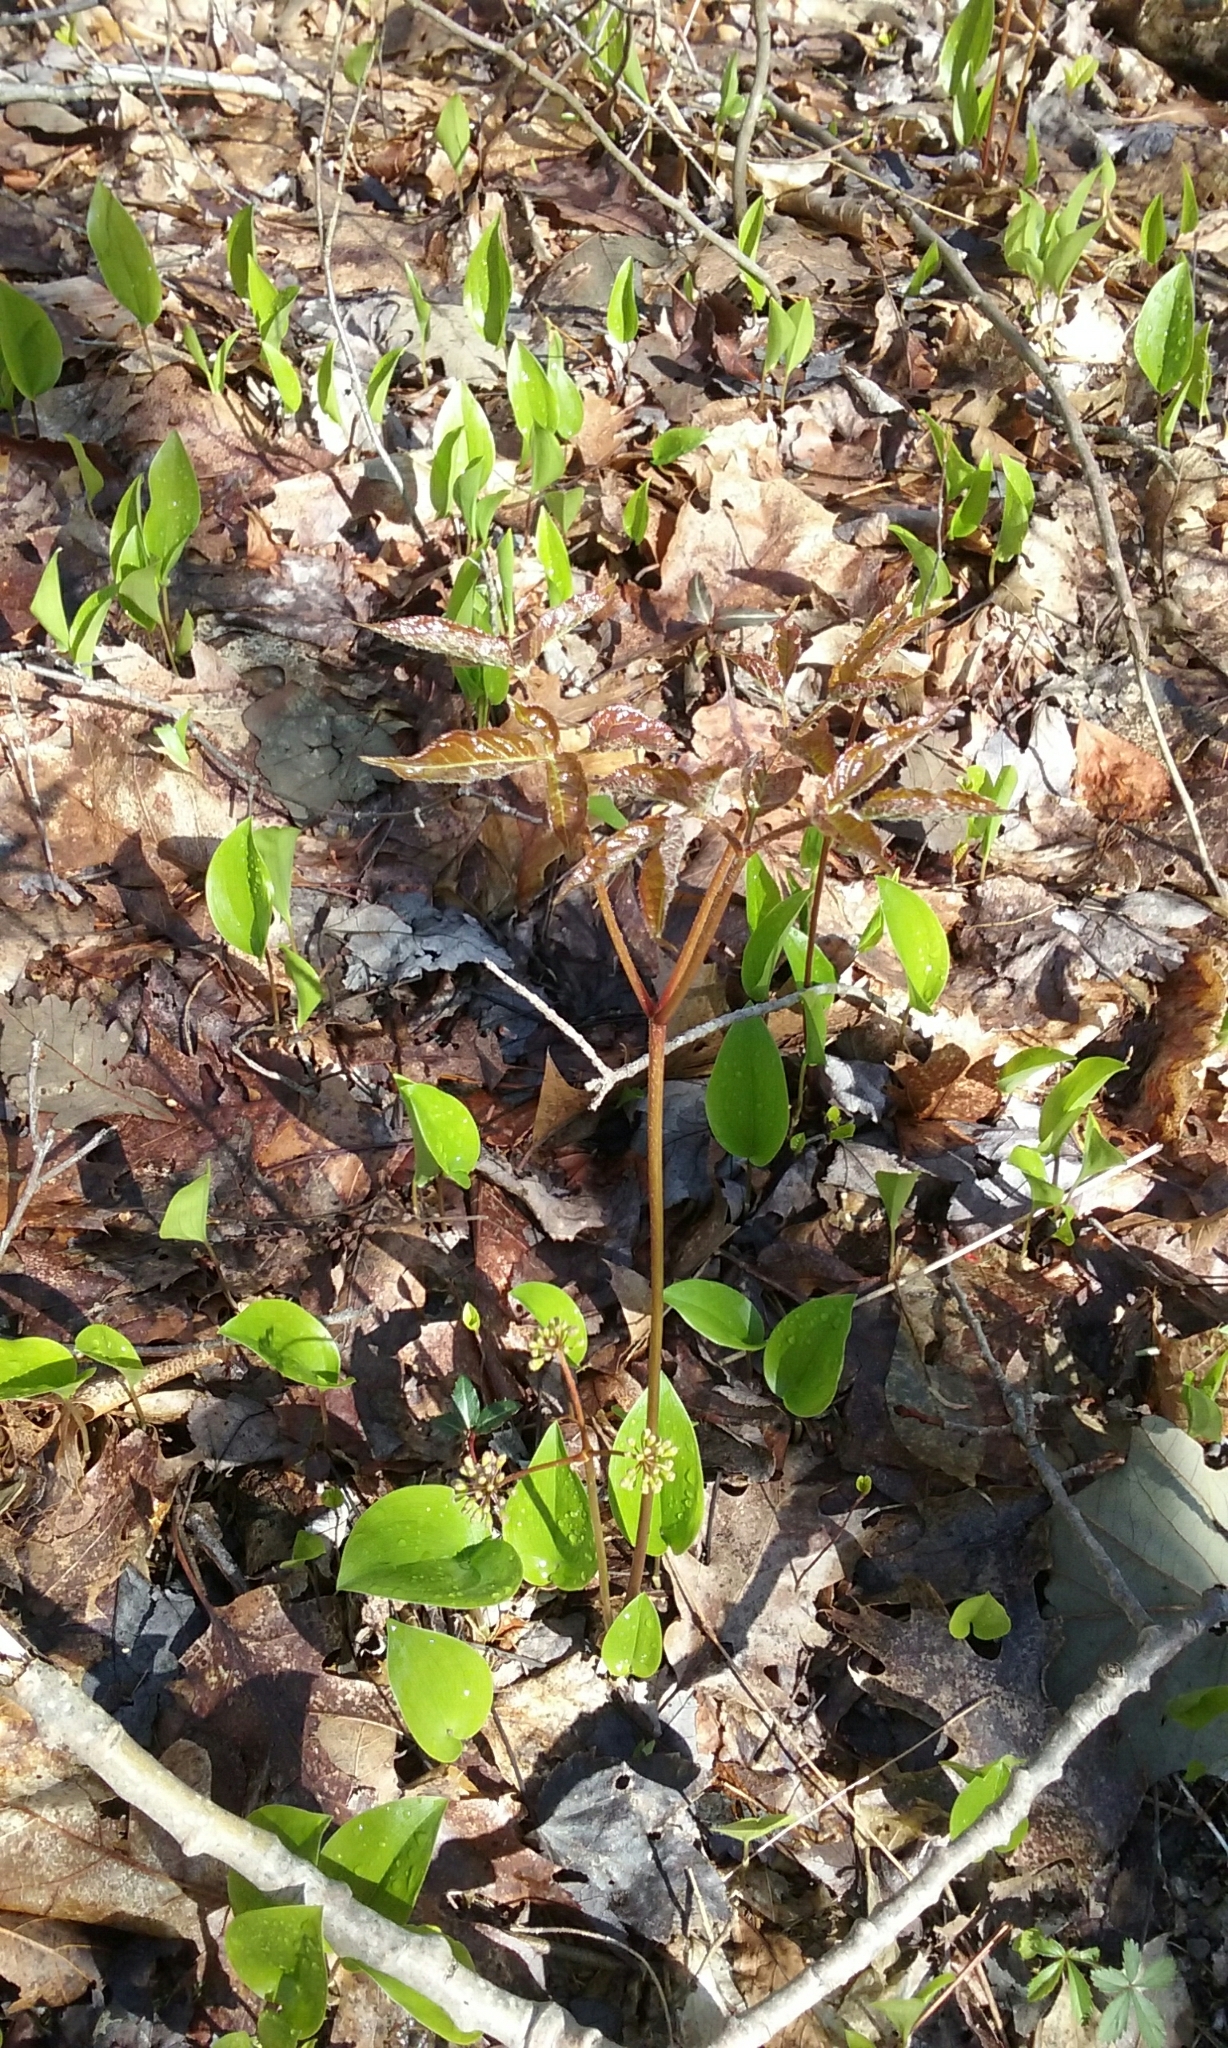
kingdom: Plantae
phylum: Tracheophyta
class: Magnoliopsida
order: Apiales
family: Araliaceae
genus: Aralia
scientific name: Aralia nudicaulis
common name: Wild sarsaparilla
